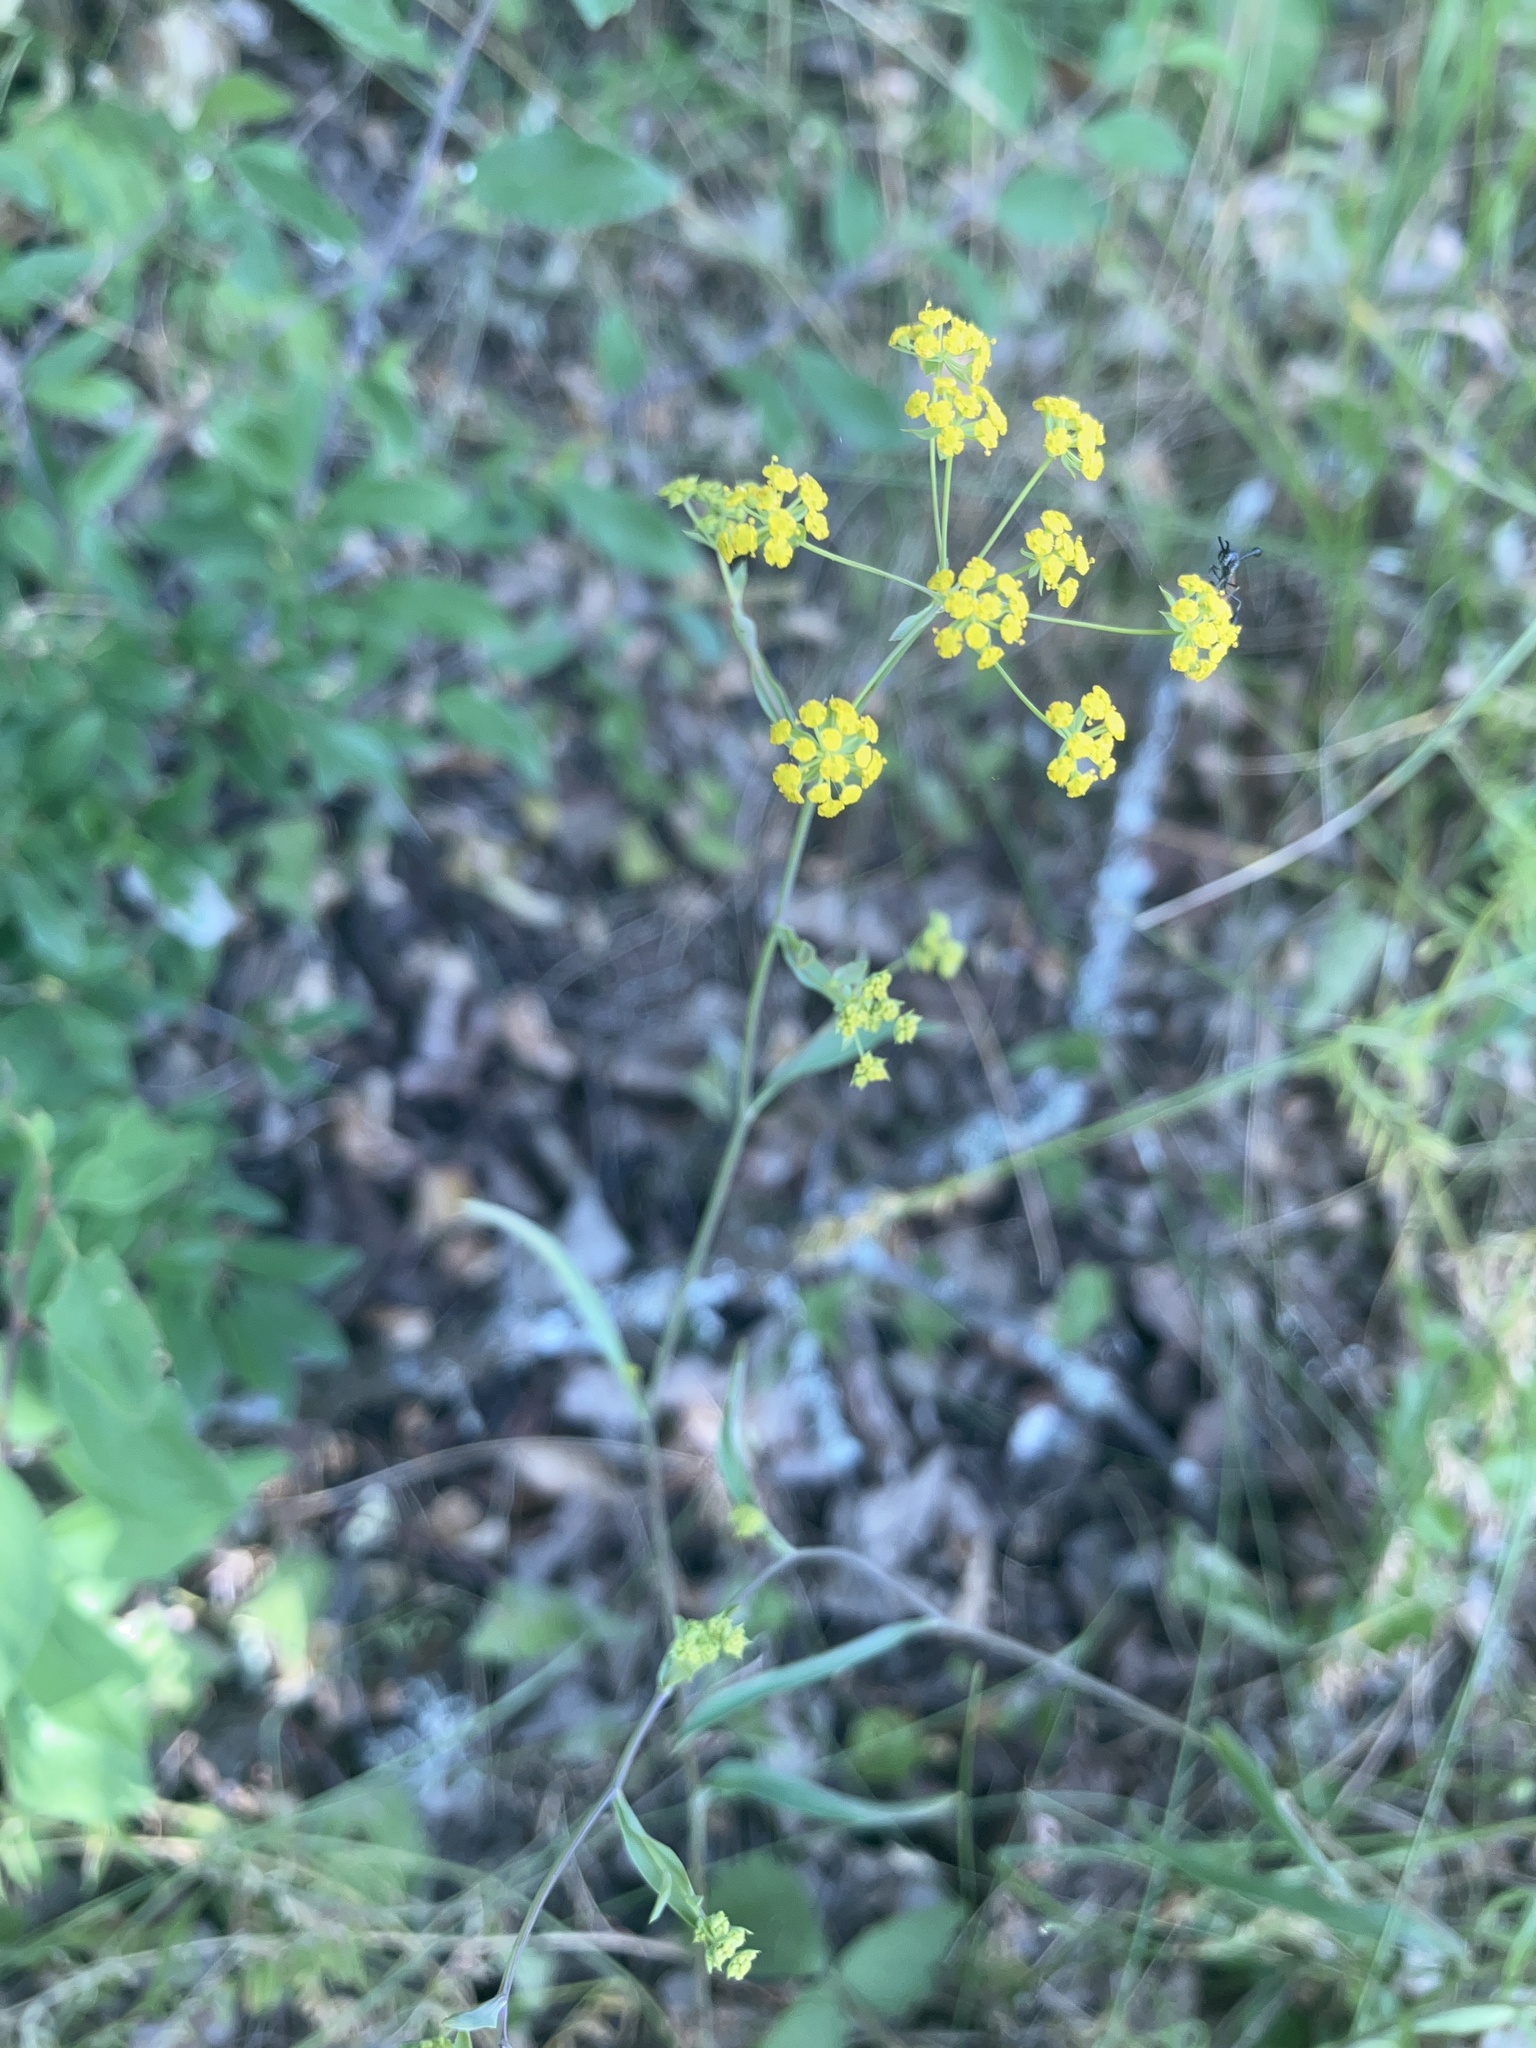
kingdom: Plantae
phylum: Tracheophyta
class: Magnoliopsida
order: Apiales
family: Apiaceae
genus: Bupleurum
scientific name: Bupleurum falcatum
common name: Sickle-leaved hare's-ear
